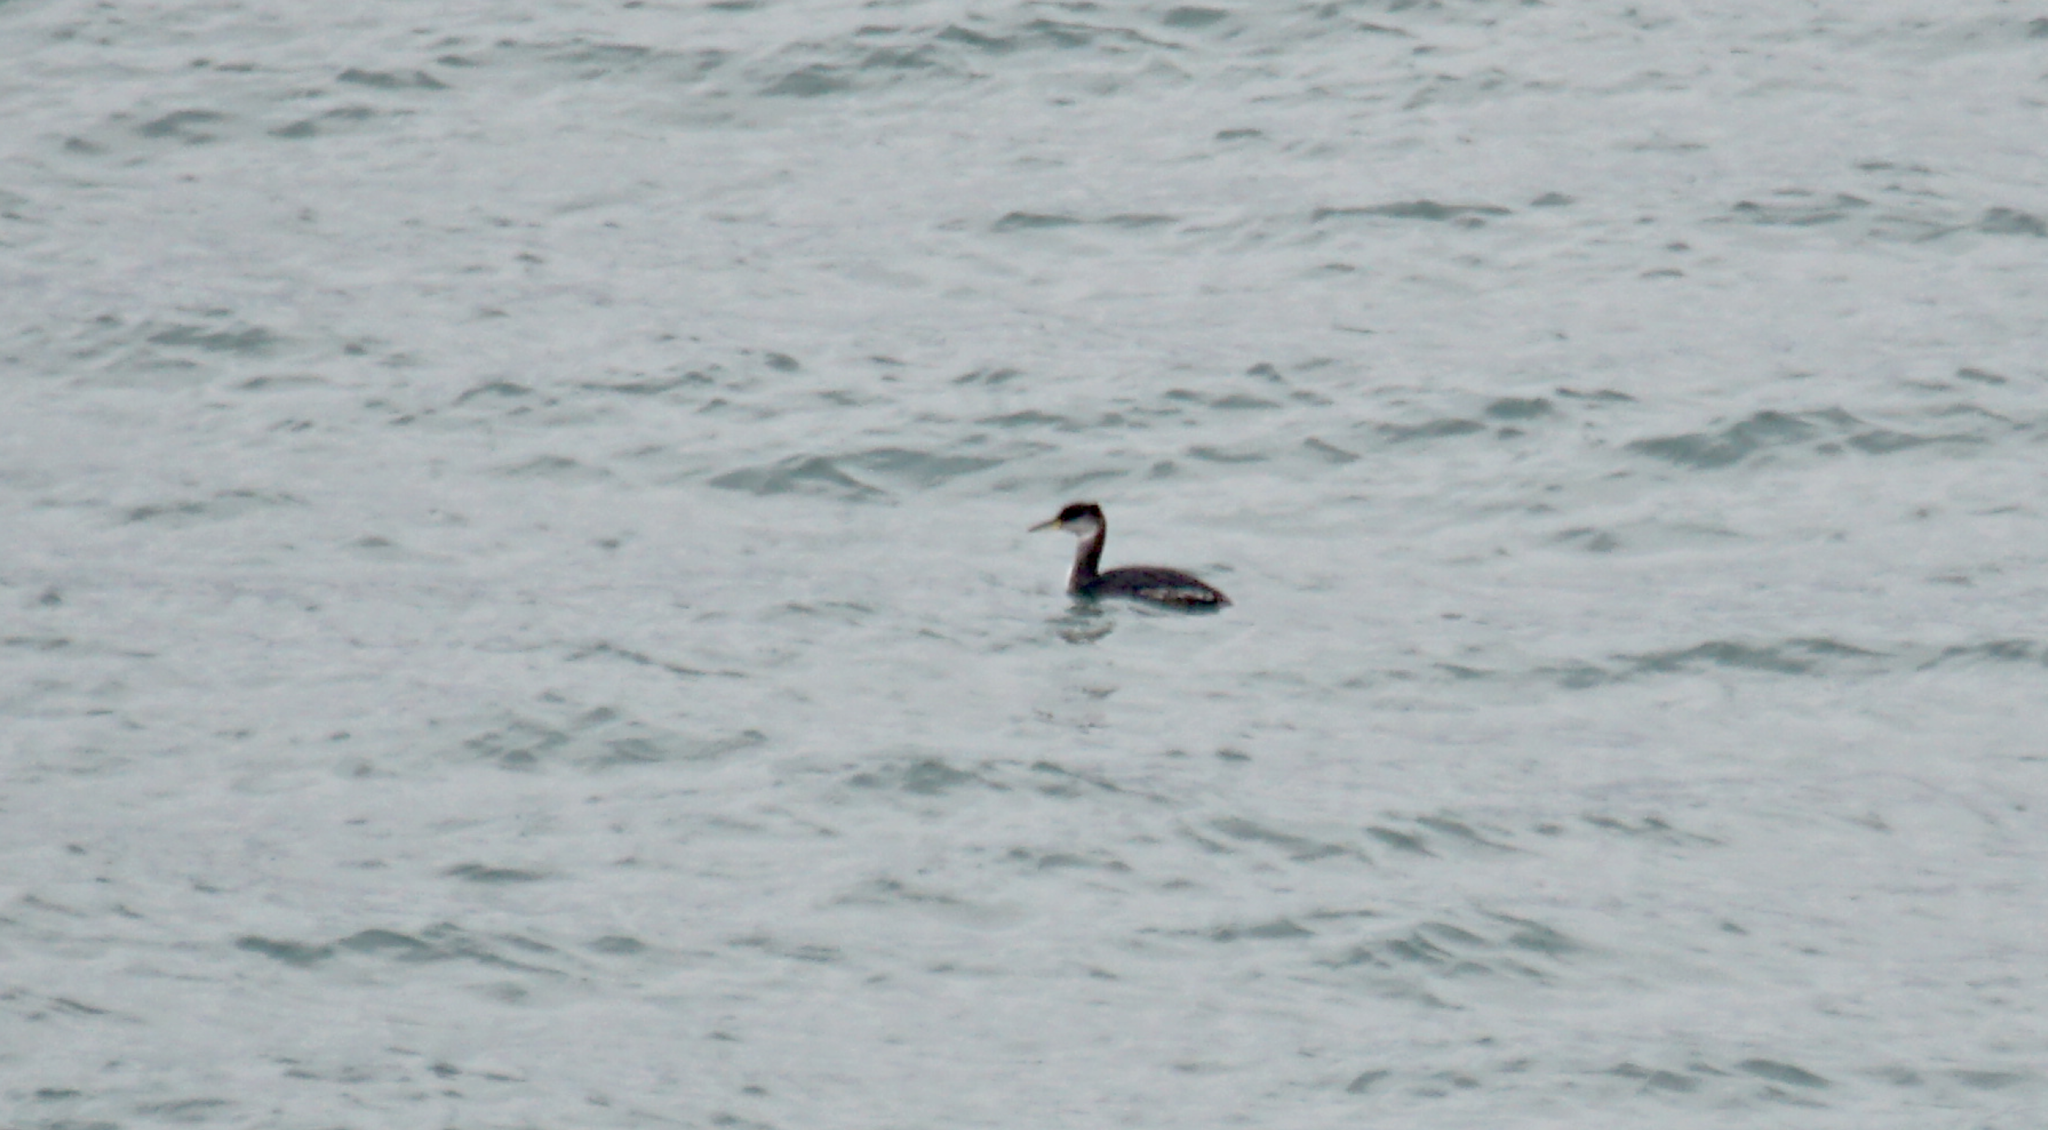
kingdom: Animalia
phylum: Chordata
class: Aves
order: Podicipediformes
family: Podicipedidae
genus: Podiceps
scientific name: Podiceps grisegena
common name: Red-necked grebe
